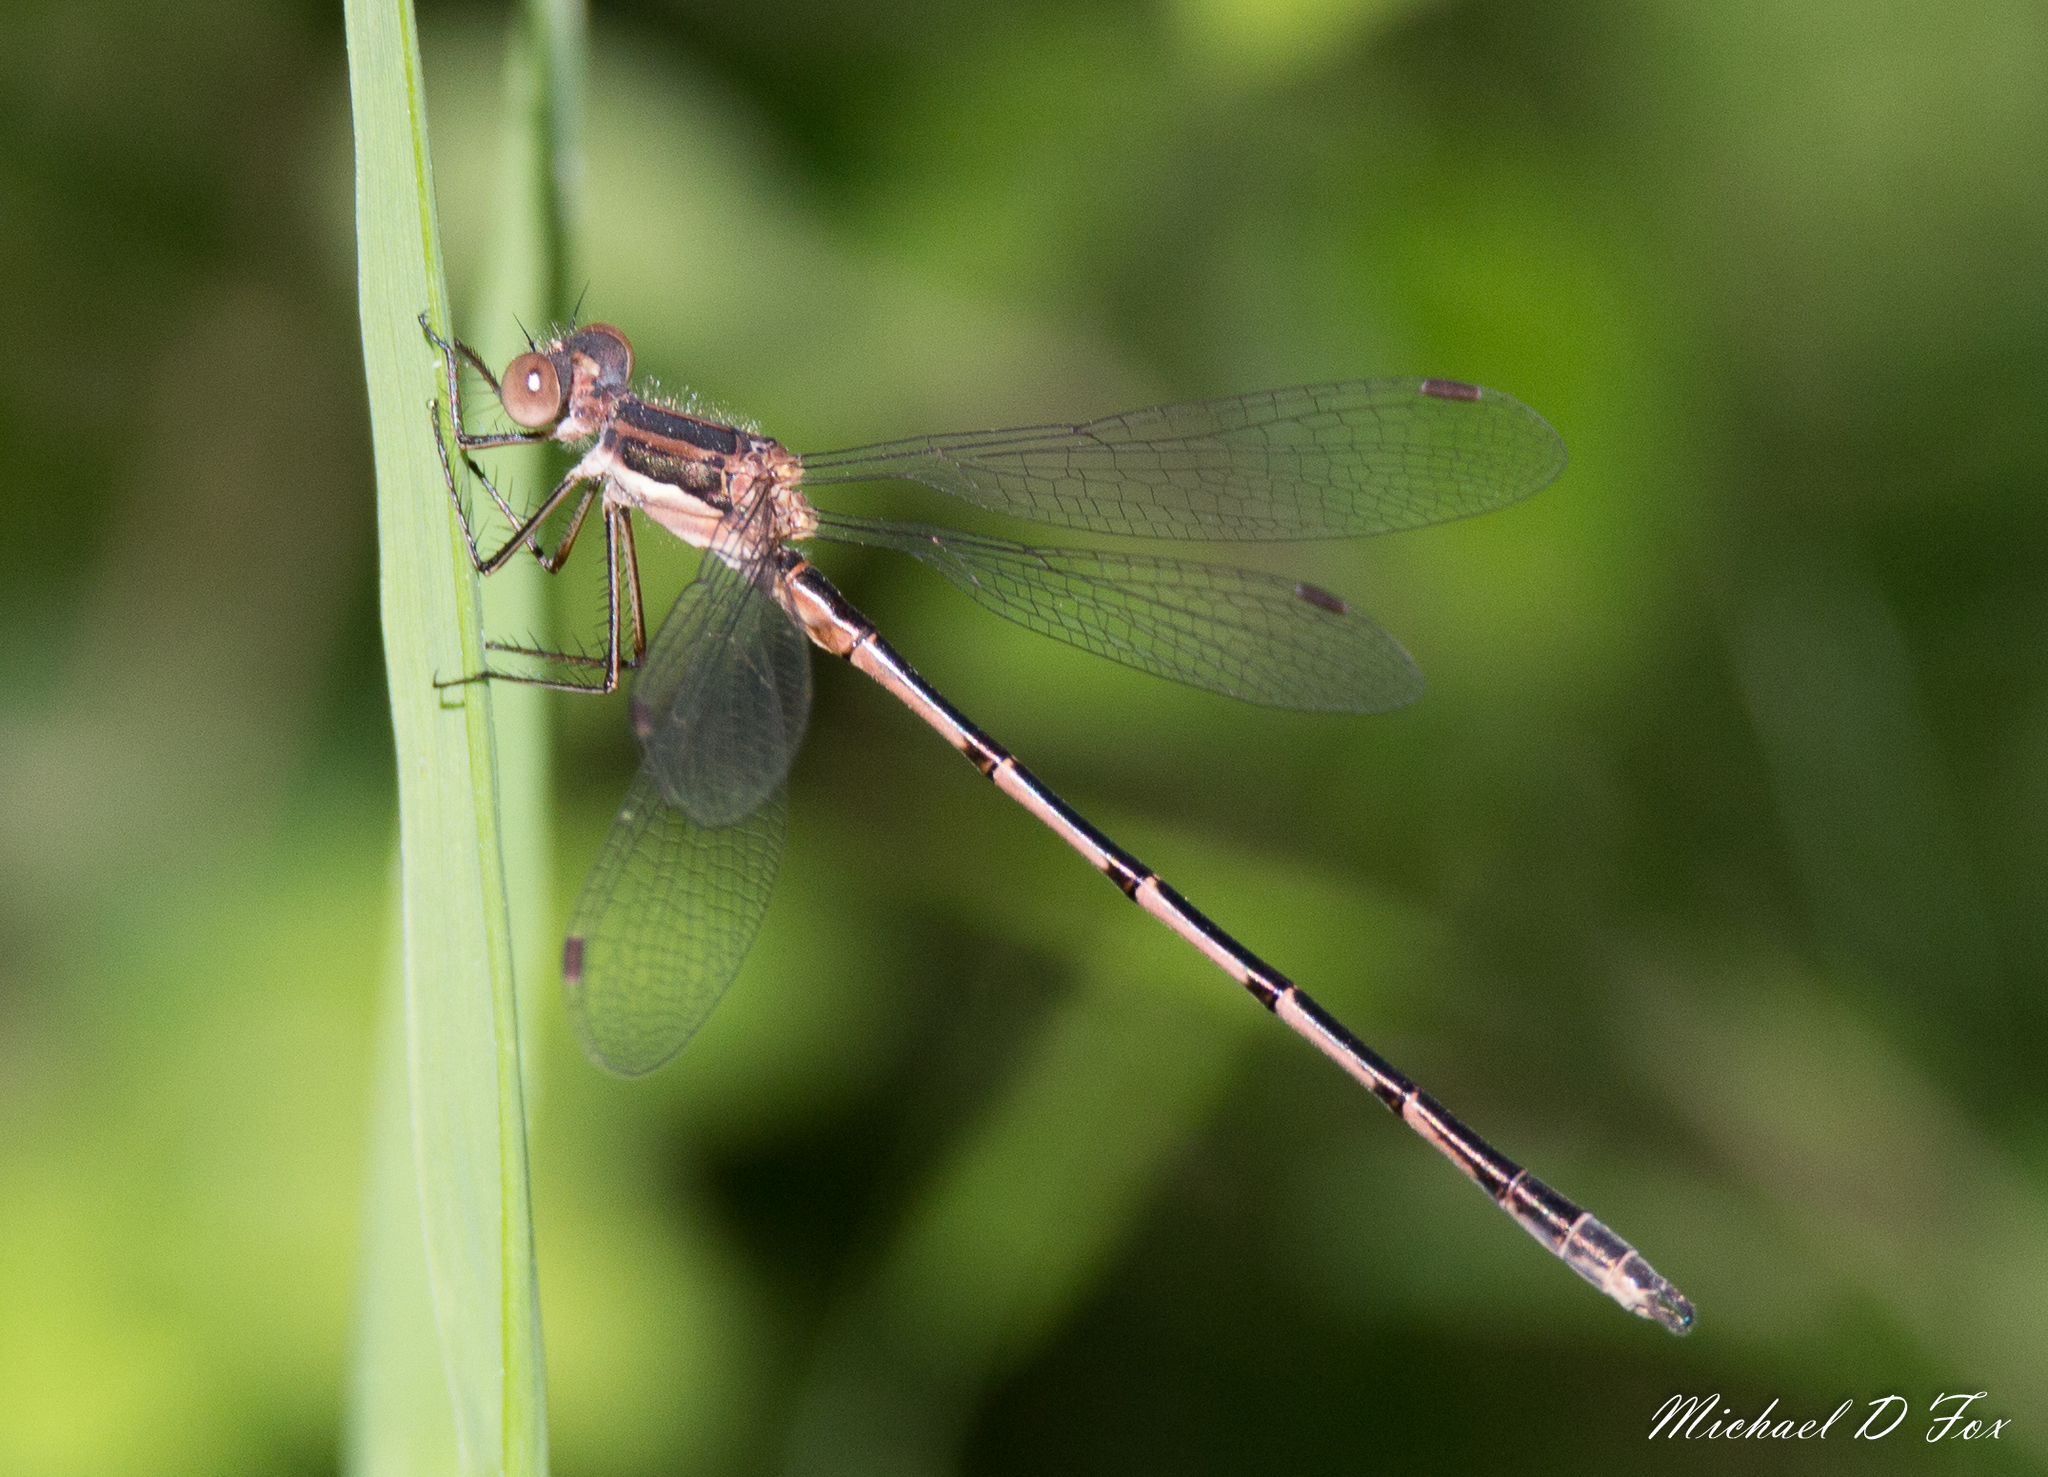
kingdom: Animalia
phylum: Arthropoda
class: Insecta
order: Odonata
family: Lestidae
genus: Lestes
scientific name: Lestes australis
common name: Southern spreadwing
